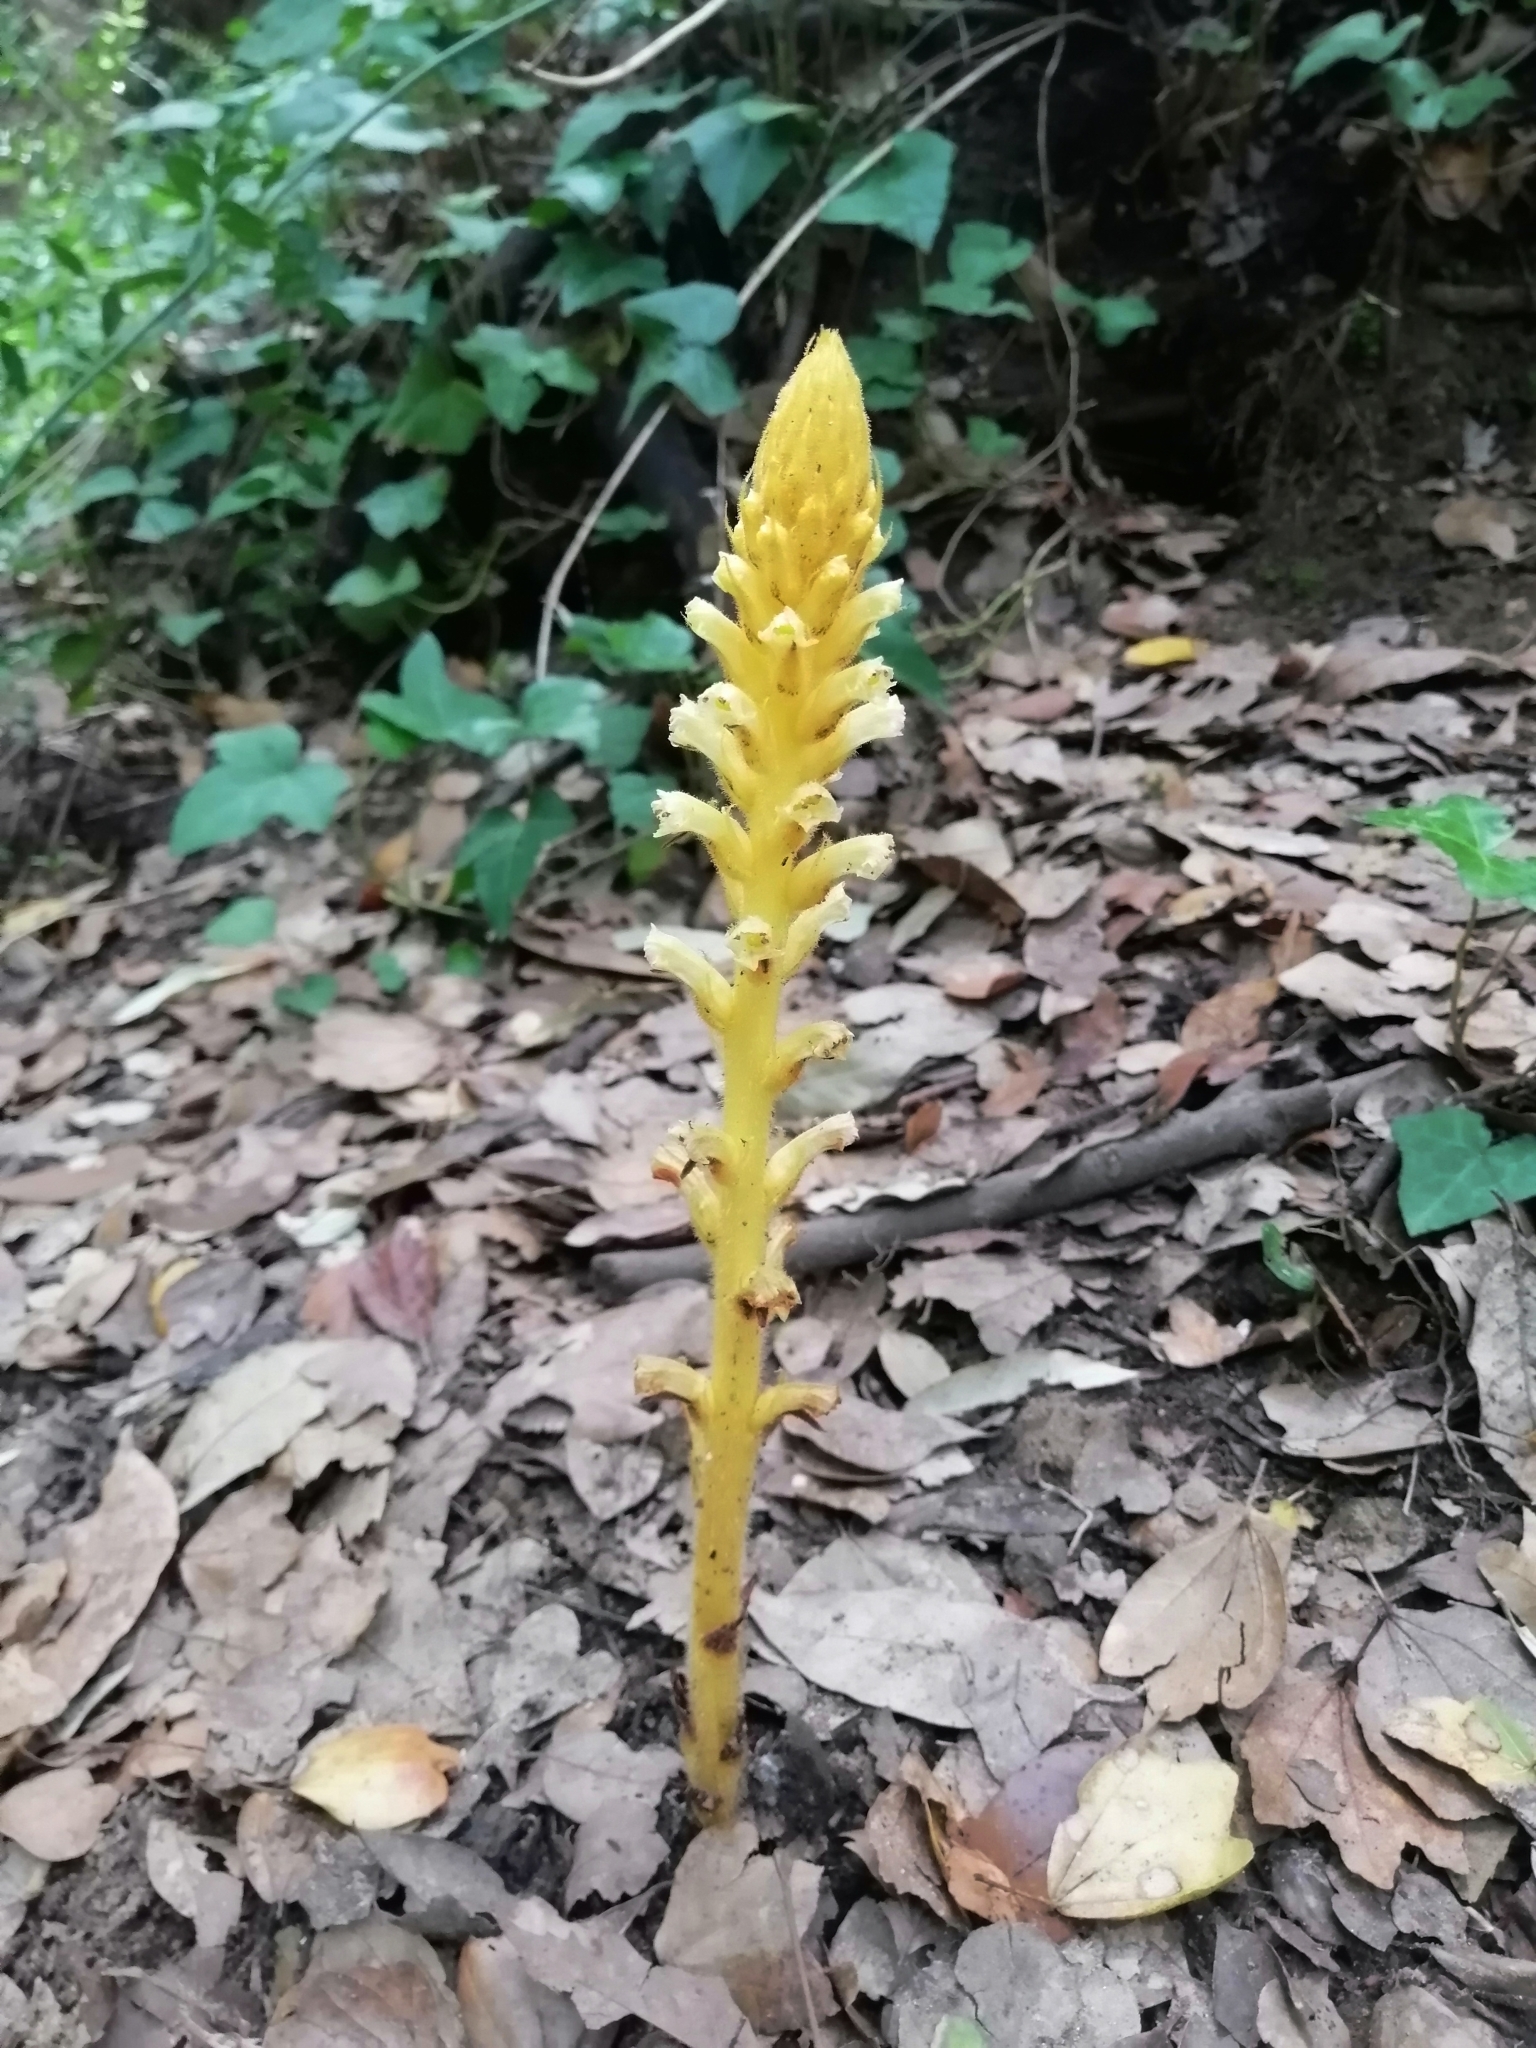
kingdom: Plantae
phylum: Tracheophyta
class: Magnoliopsida
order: Lamiales
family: Orobanchaceae
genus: Orobanche
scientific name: Orobanche hederae
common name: Ivy broomrape
